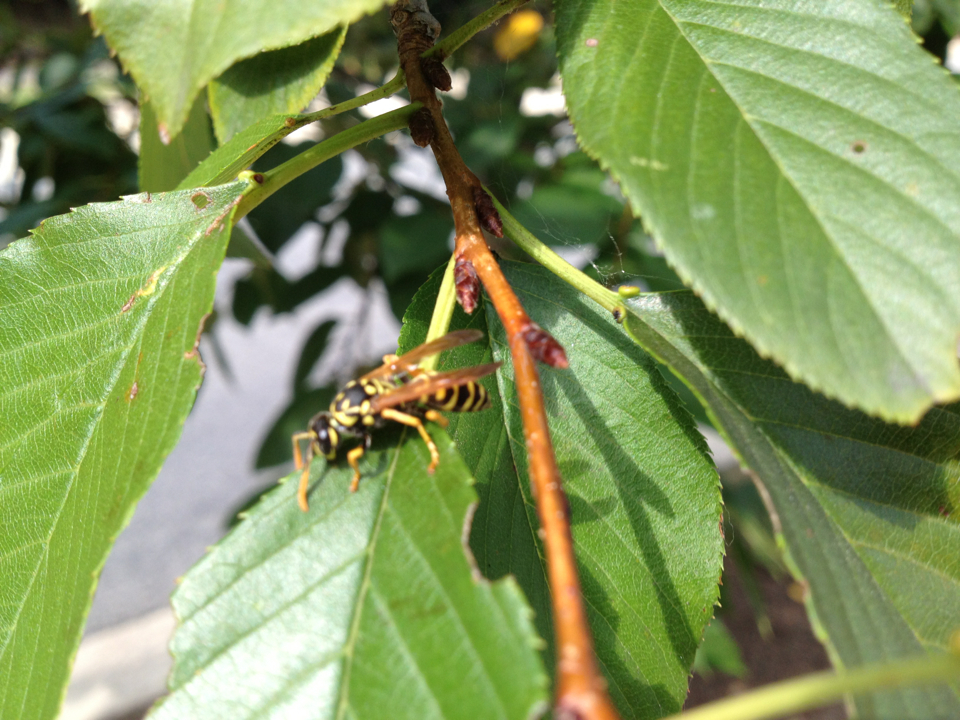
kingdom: Animalia
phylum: Arthropoda
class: Insecta
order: Hymenoptera
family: Eumenidae
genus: Polistes
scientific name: Polistes dominula
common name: Paper wasp
